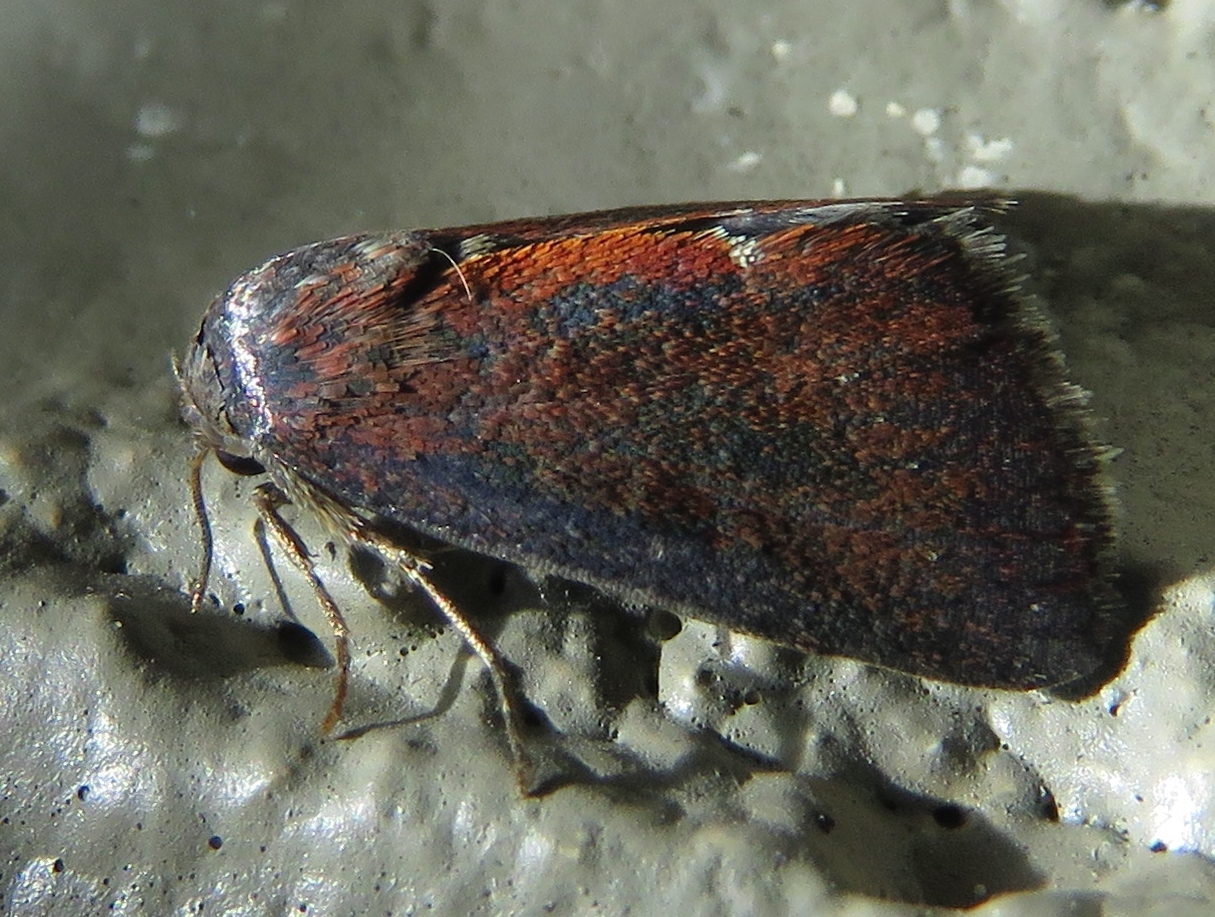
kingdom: Animalia
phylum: Arthropoda
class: Insecta
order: Lepidoptera
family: Noctuidae
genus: Galgula
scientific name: Galgula partita
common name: Wedgeling
